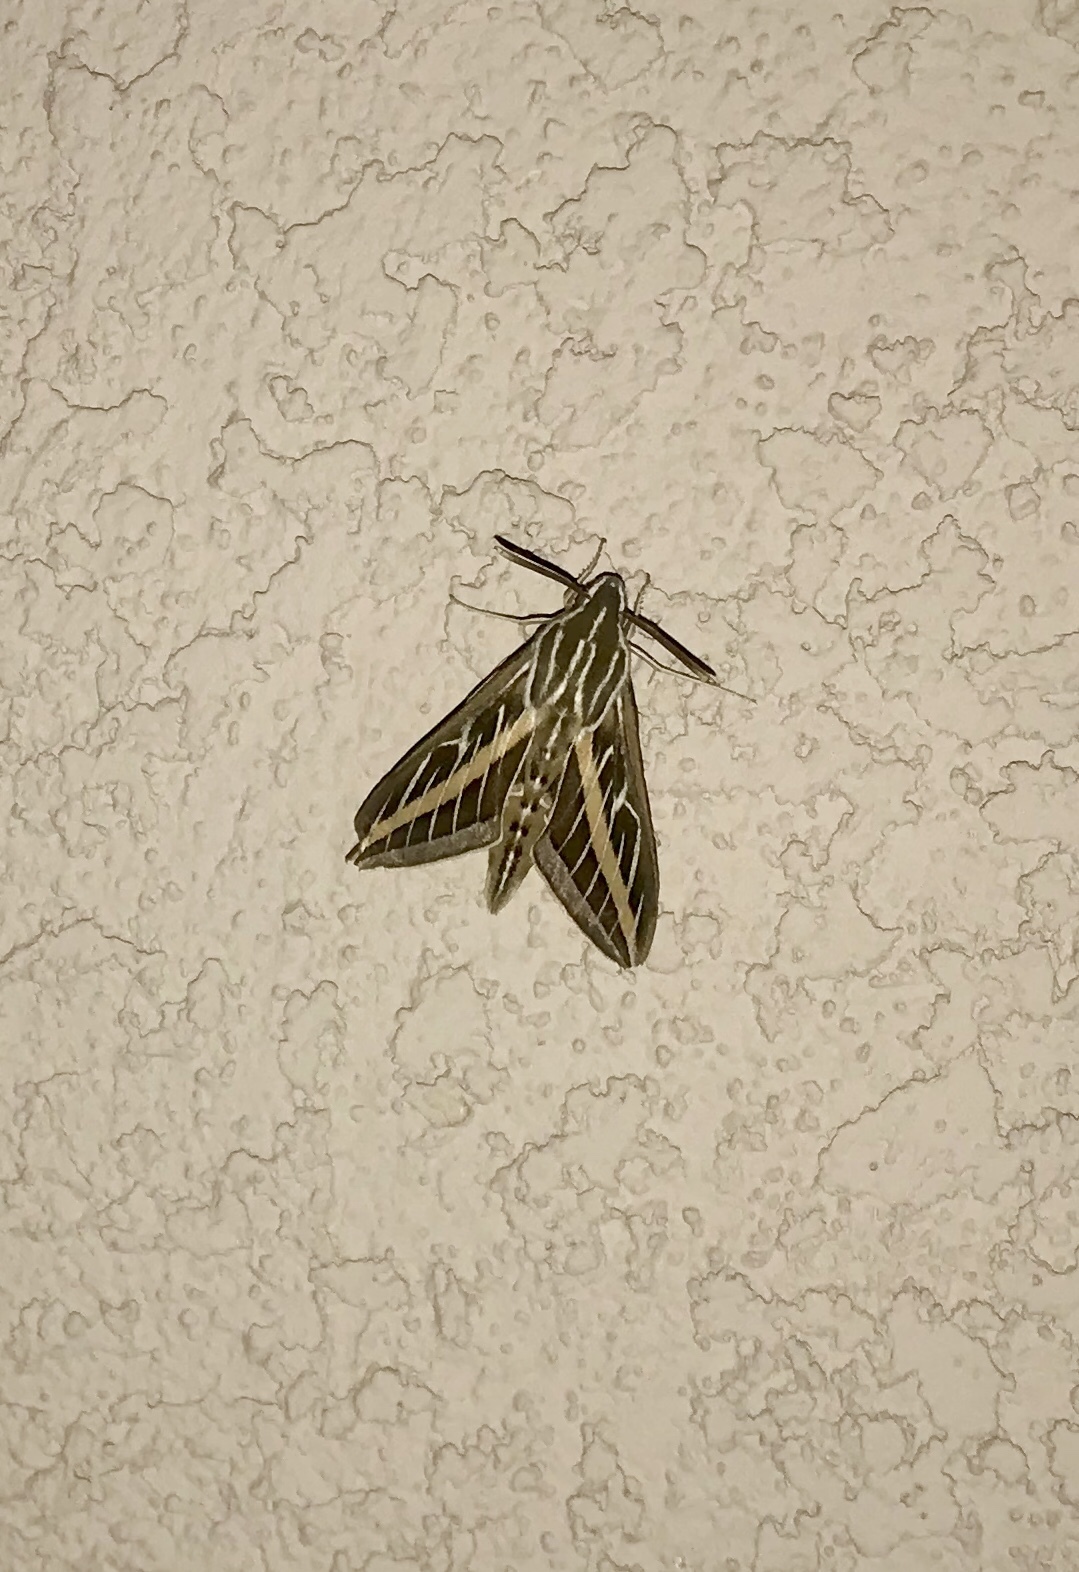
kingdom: Animalia
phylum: Arthropoda
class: Insecta
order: Lepidoptera
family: Sphingidae
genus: Hyles
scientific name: Hyles lineata
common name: White-lined sphinx
